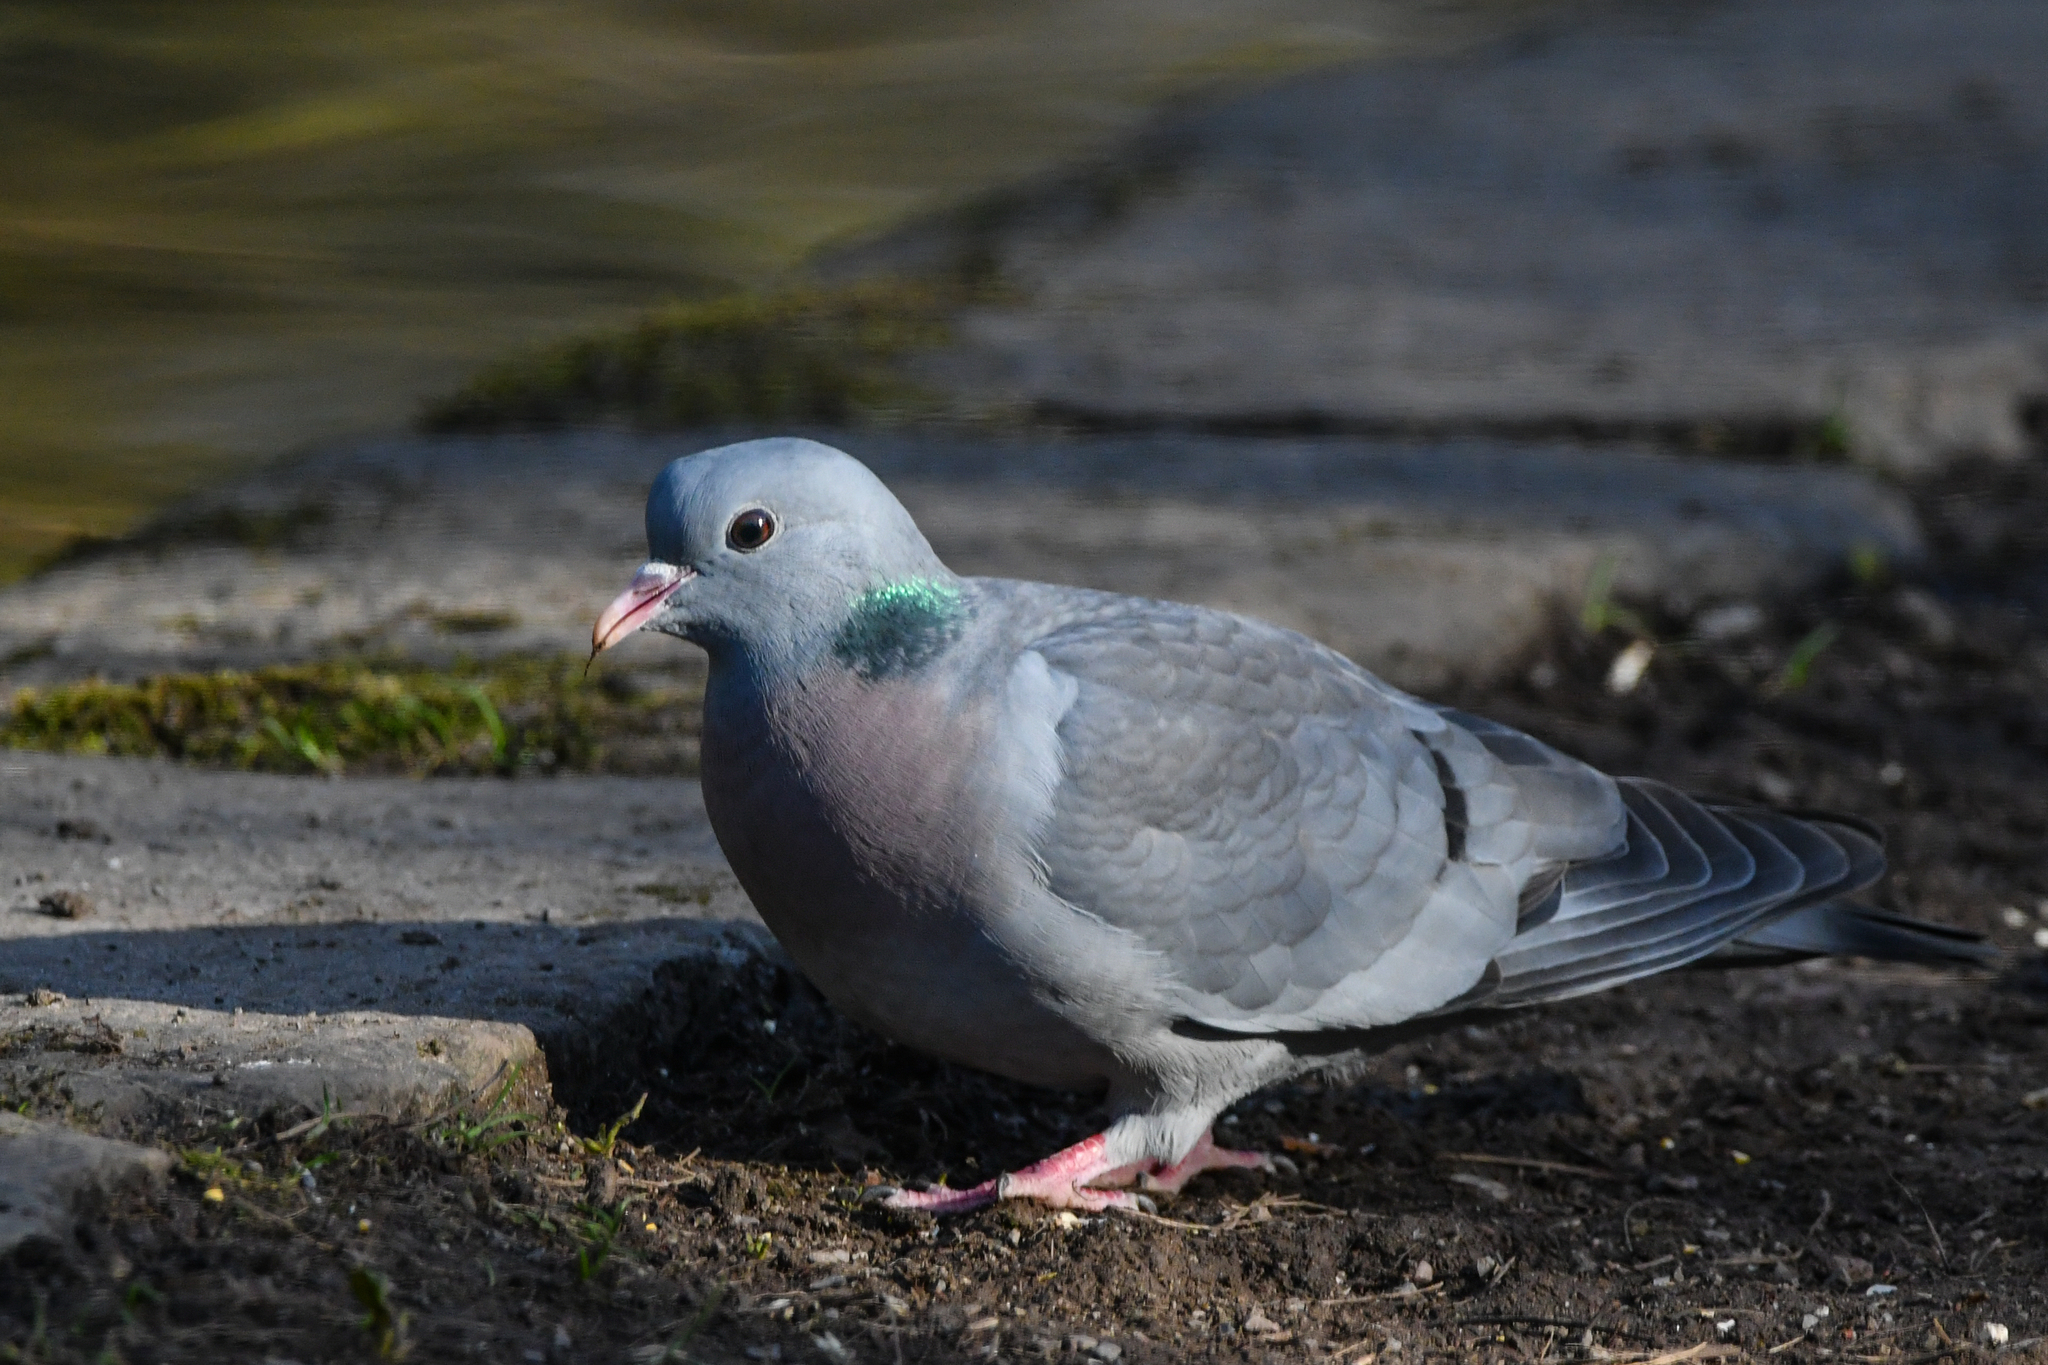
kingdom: Animalia
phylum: Chordata
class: Aves
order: Columbiformes
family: Columbidae
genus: Columba
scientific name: Columba oenas
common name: Stock dove
